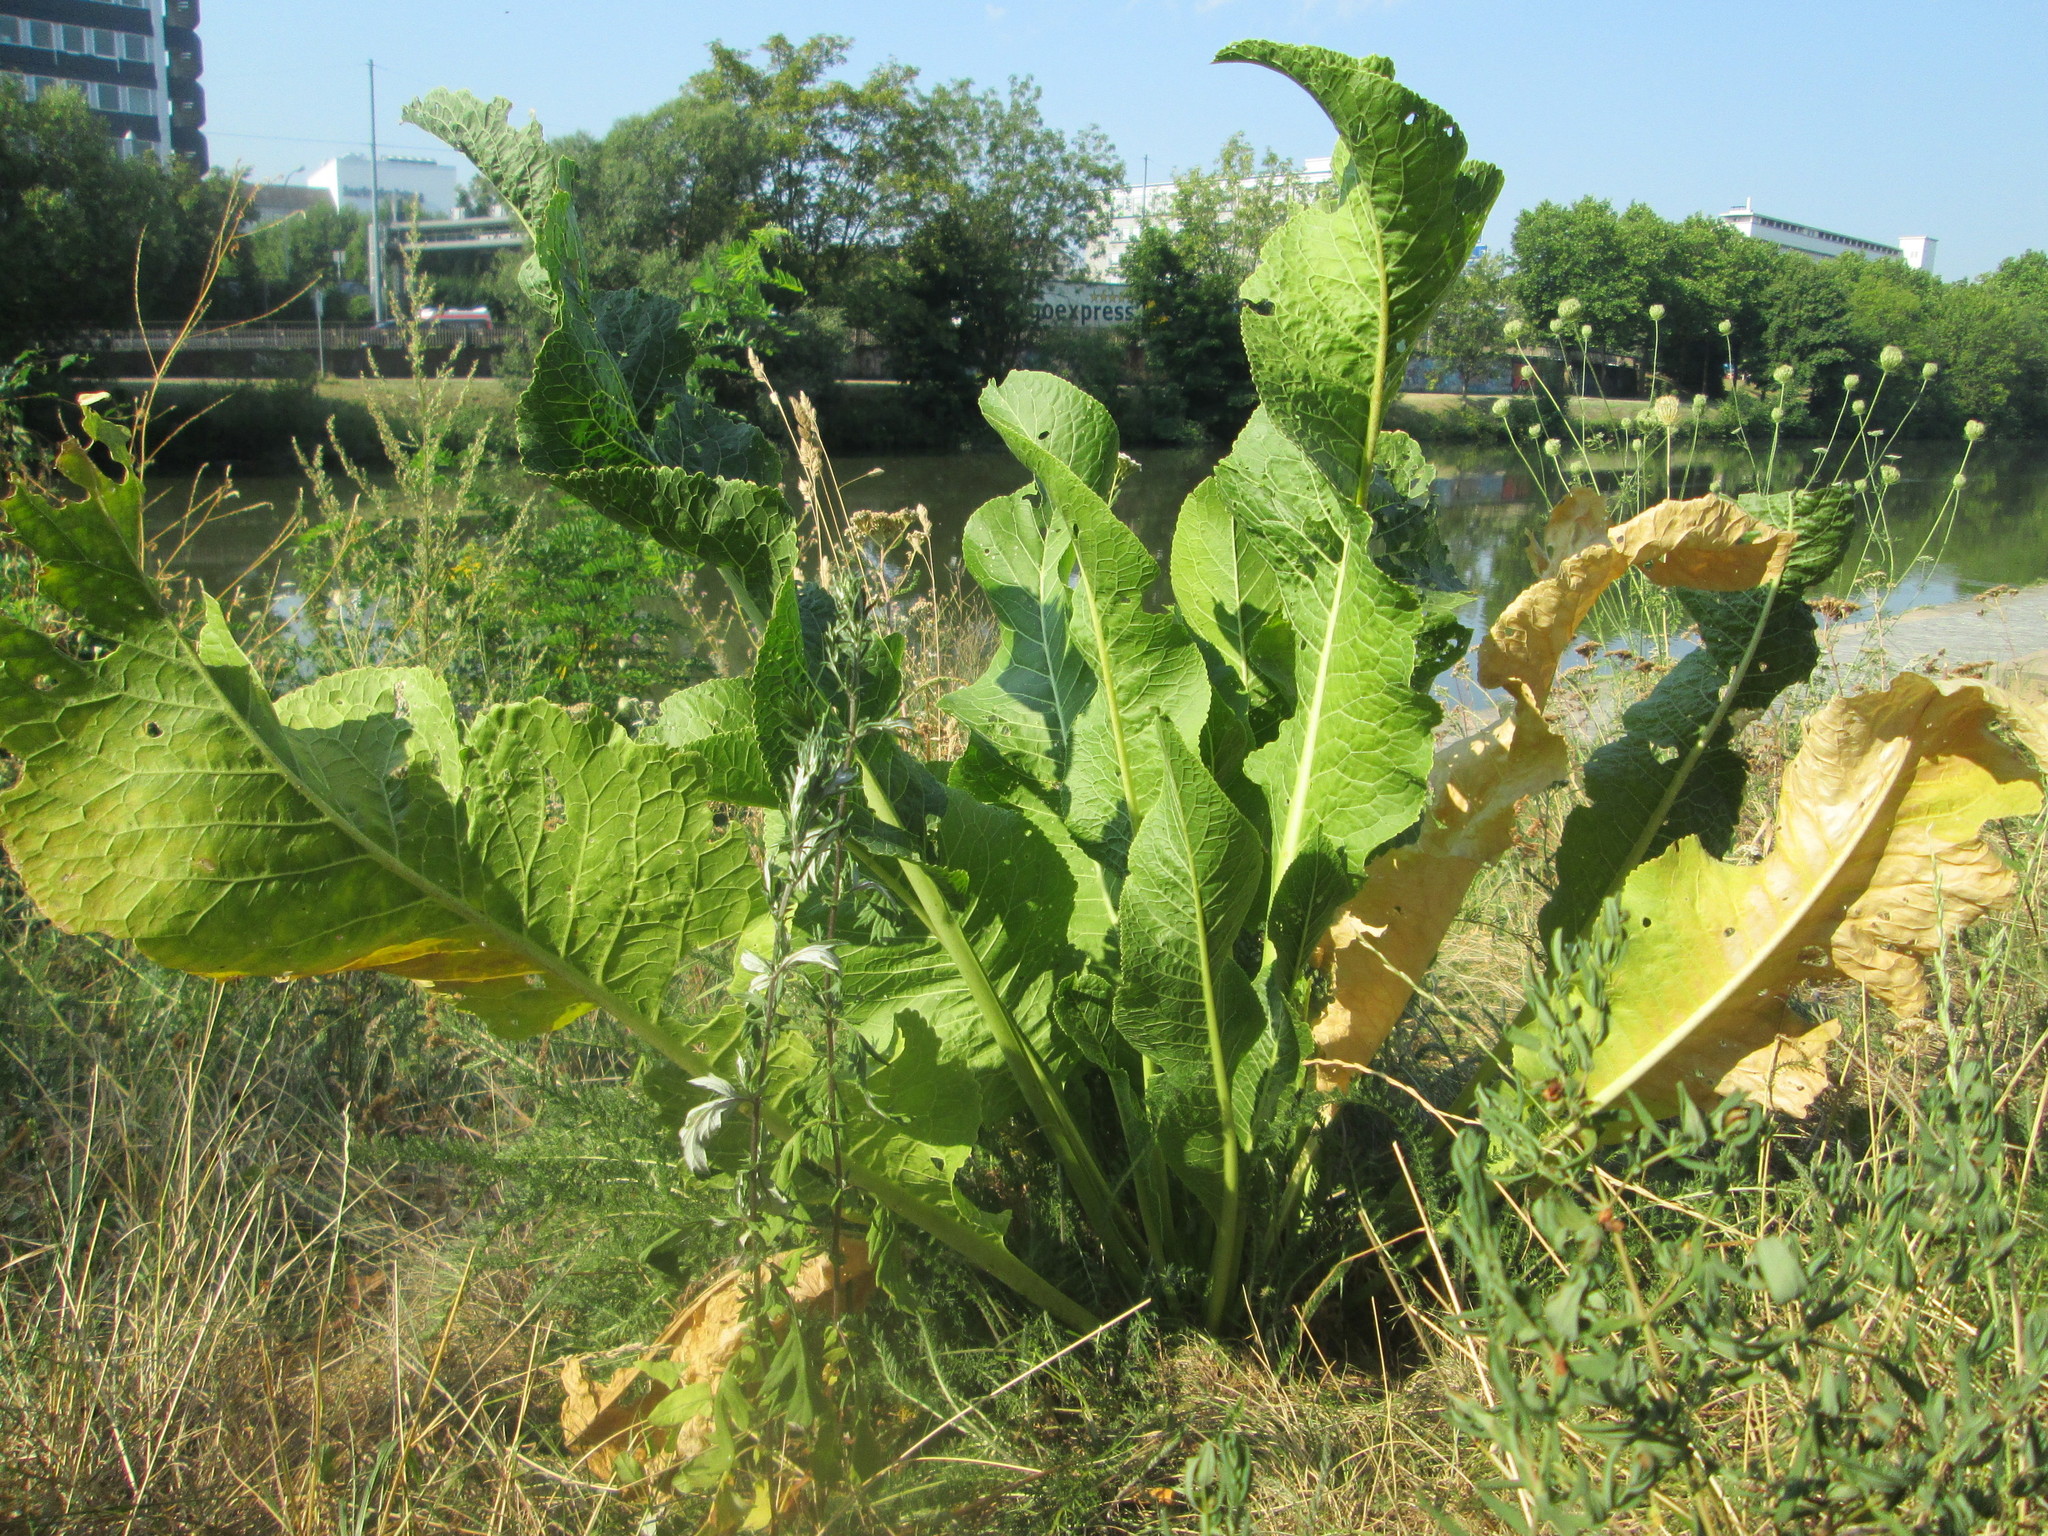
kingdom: Plantae
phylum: Tracheophyta
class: Magnoliopsida
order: Brassicales
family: Brassicaceae
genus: Armoracia
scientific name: Armoracia rusticana
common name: Horseradish
